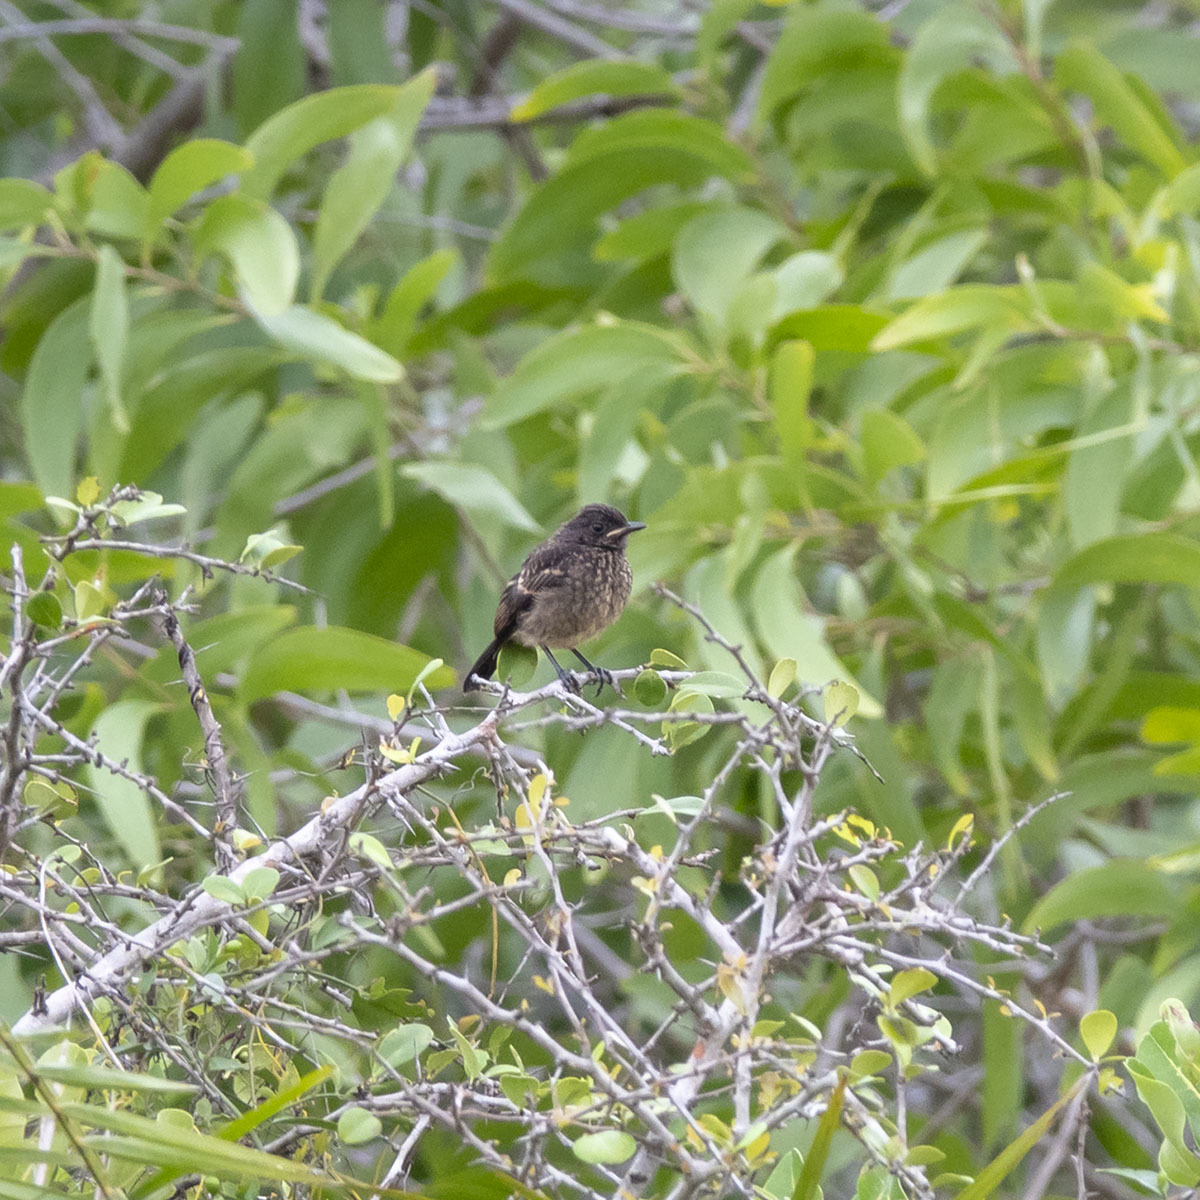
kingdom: Animalia
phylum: Chordata
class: Aves
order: Passeriformes
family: Muscicapidae
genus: Saxicola
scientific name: Saxicola caprata
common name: Pied bush chat
